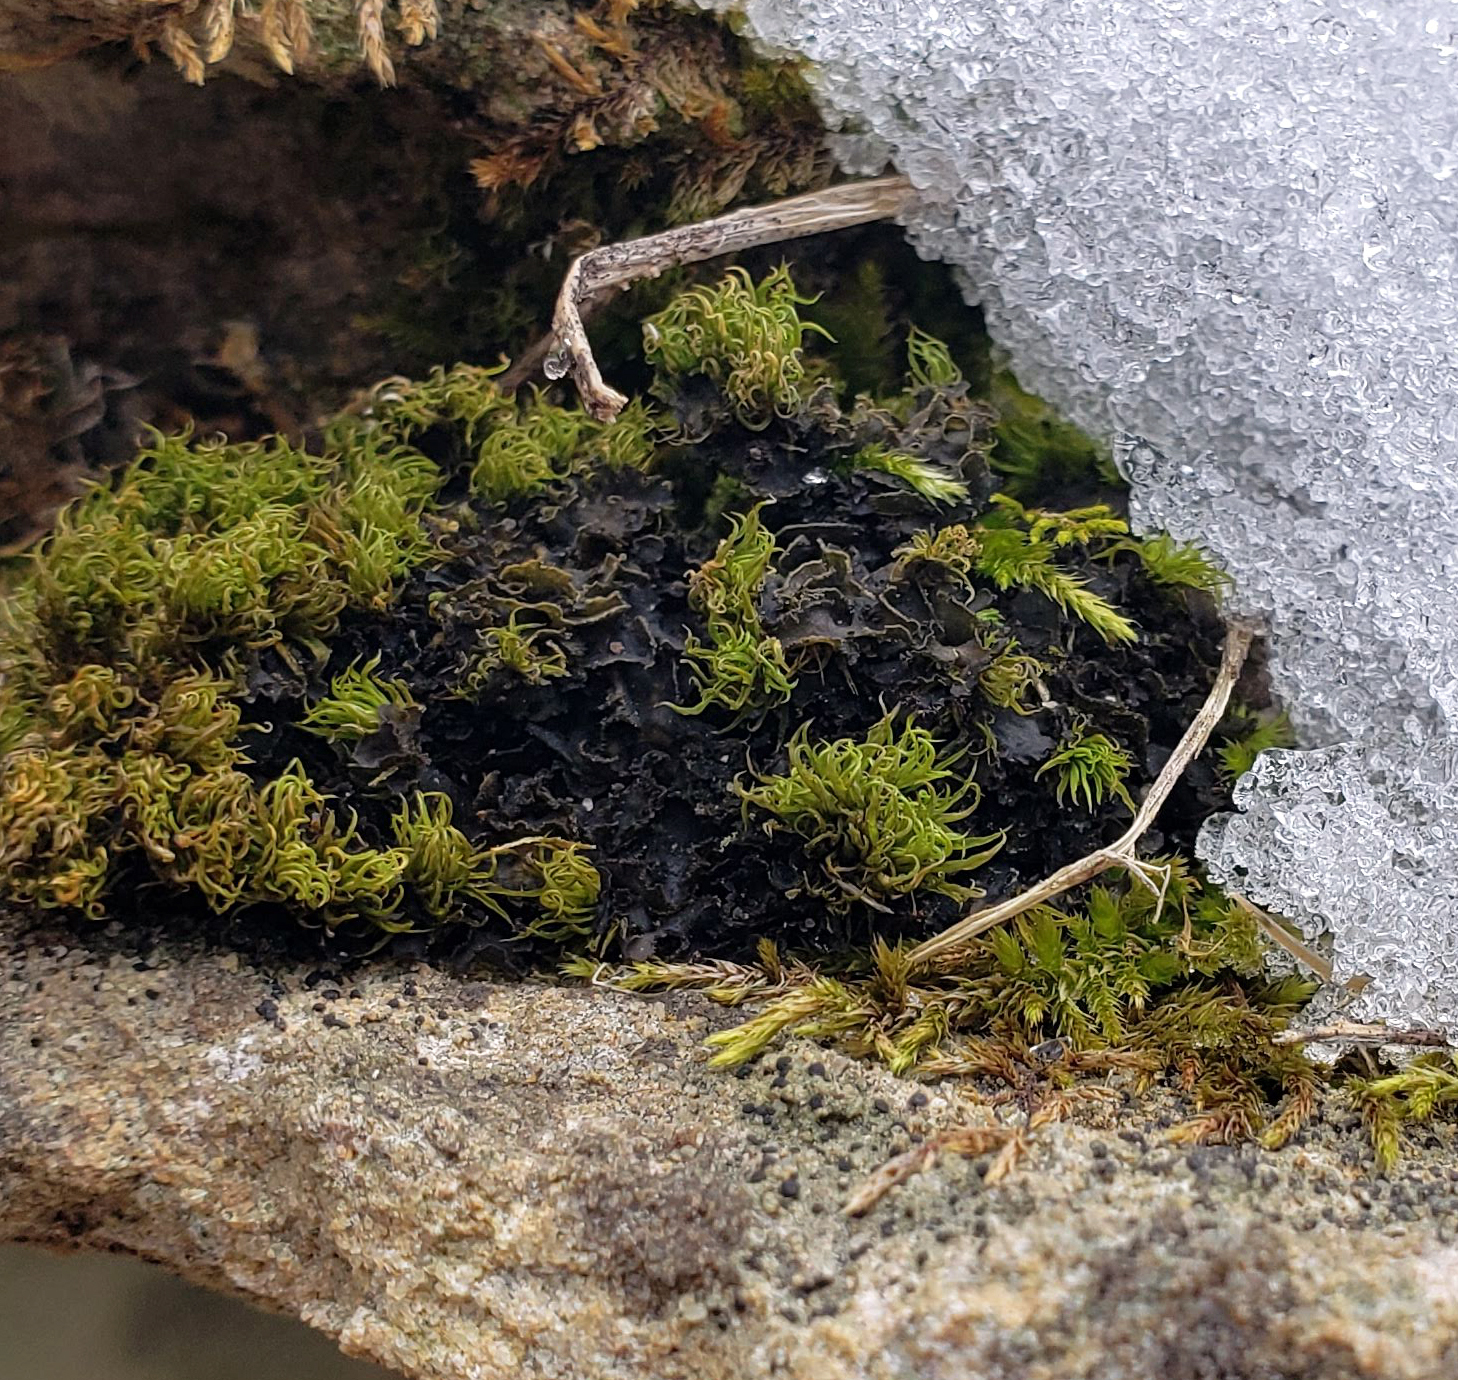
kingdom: Fungi
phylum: Ascomycota
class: Lecanoromycetes
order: Peltigerales
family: Collemataceae
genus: Scytinium
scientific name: Scytinium dactylinum
